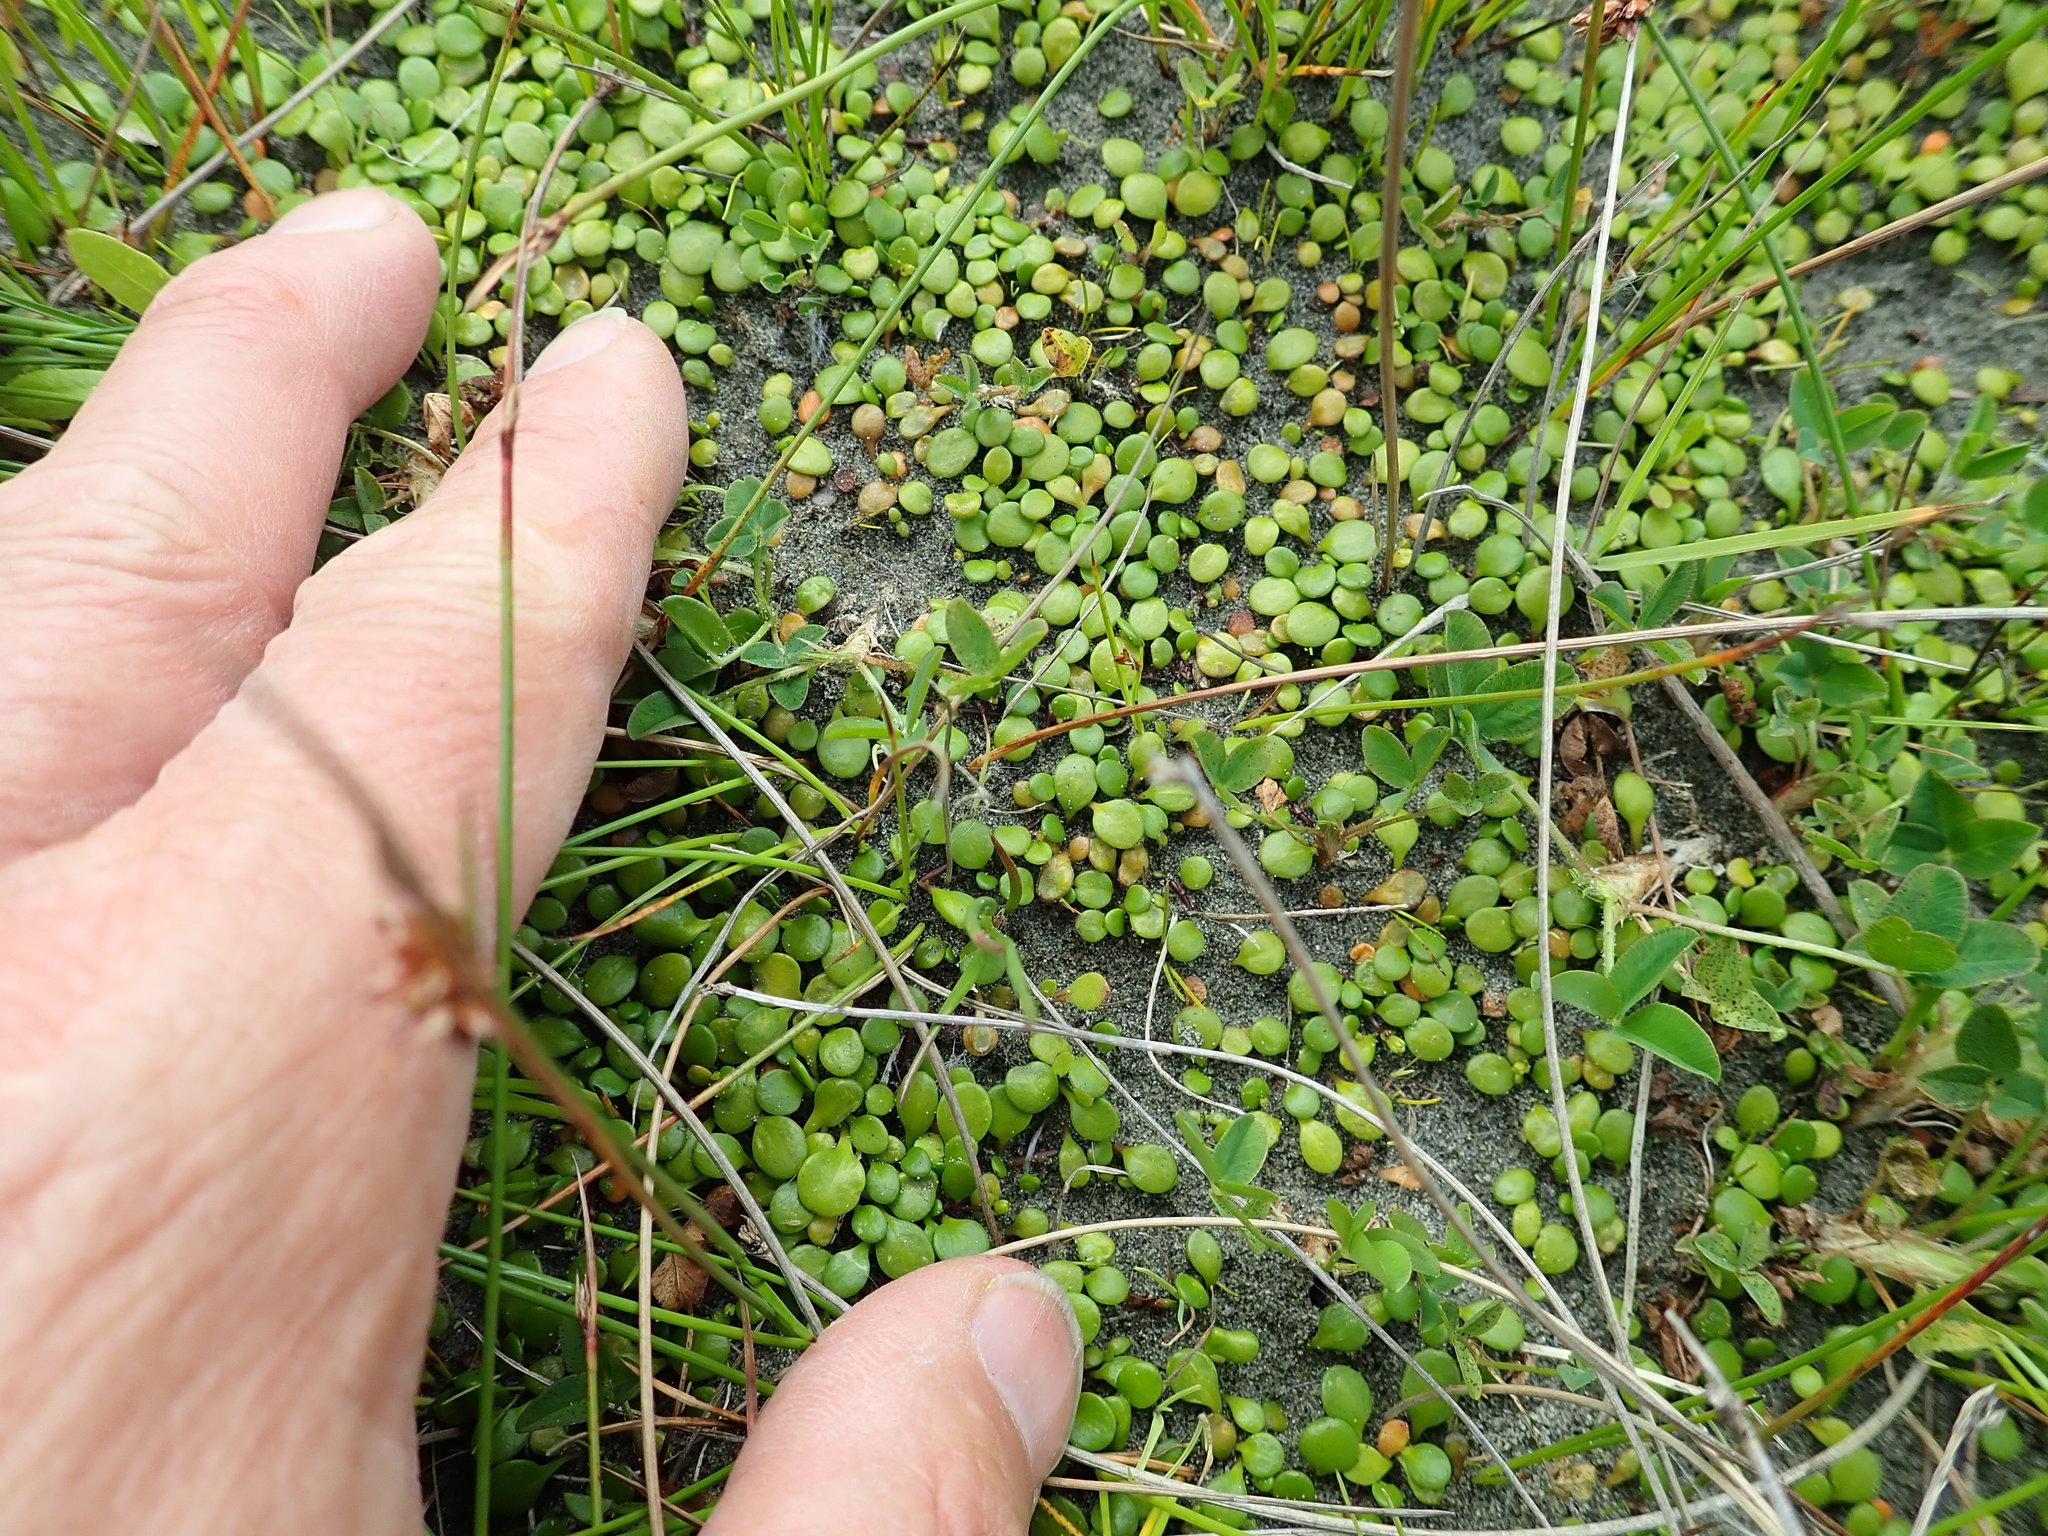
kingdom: Plantae
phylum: Tracheophyta
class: Magnoliopsida
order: Asterales
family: Goodeniaceae
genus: Goodenia
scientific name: Goodenia heenanii
